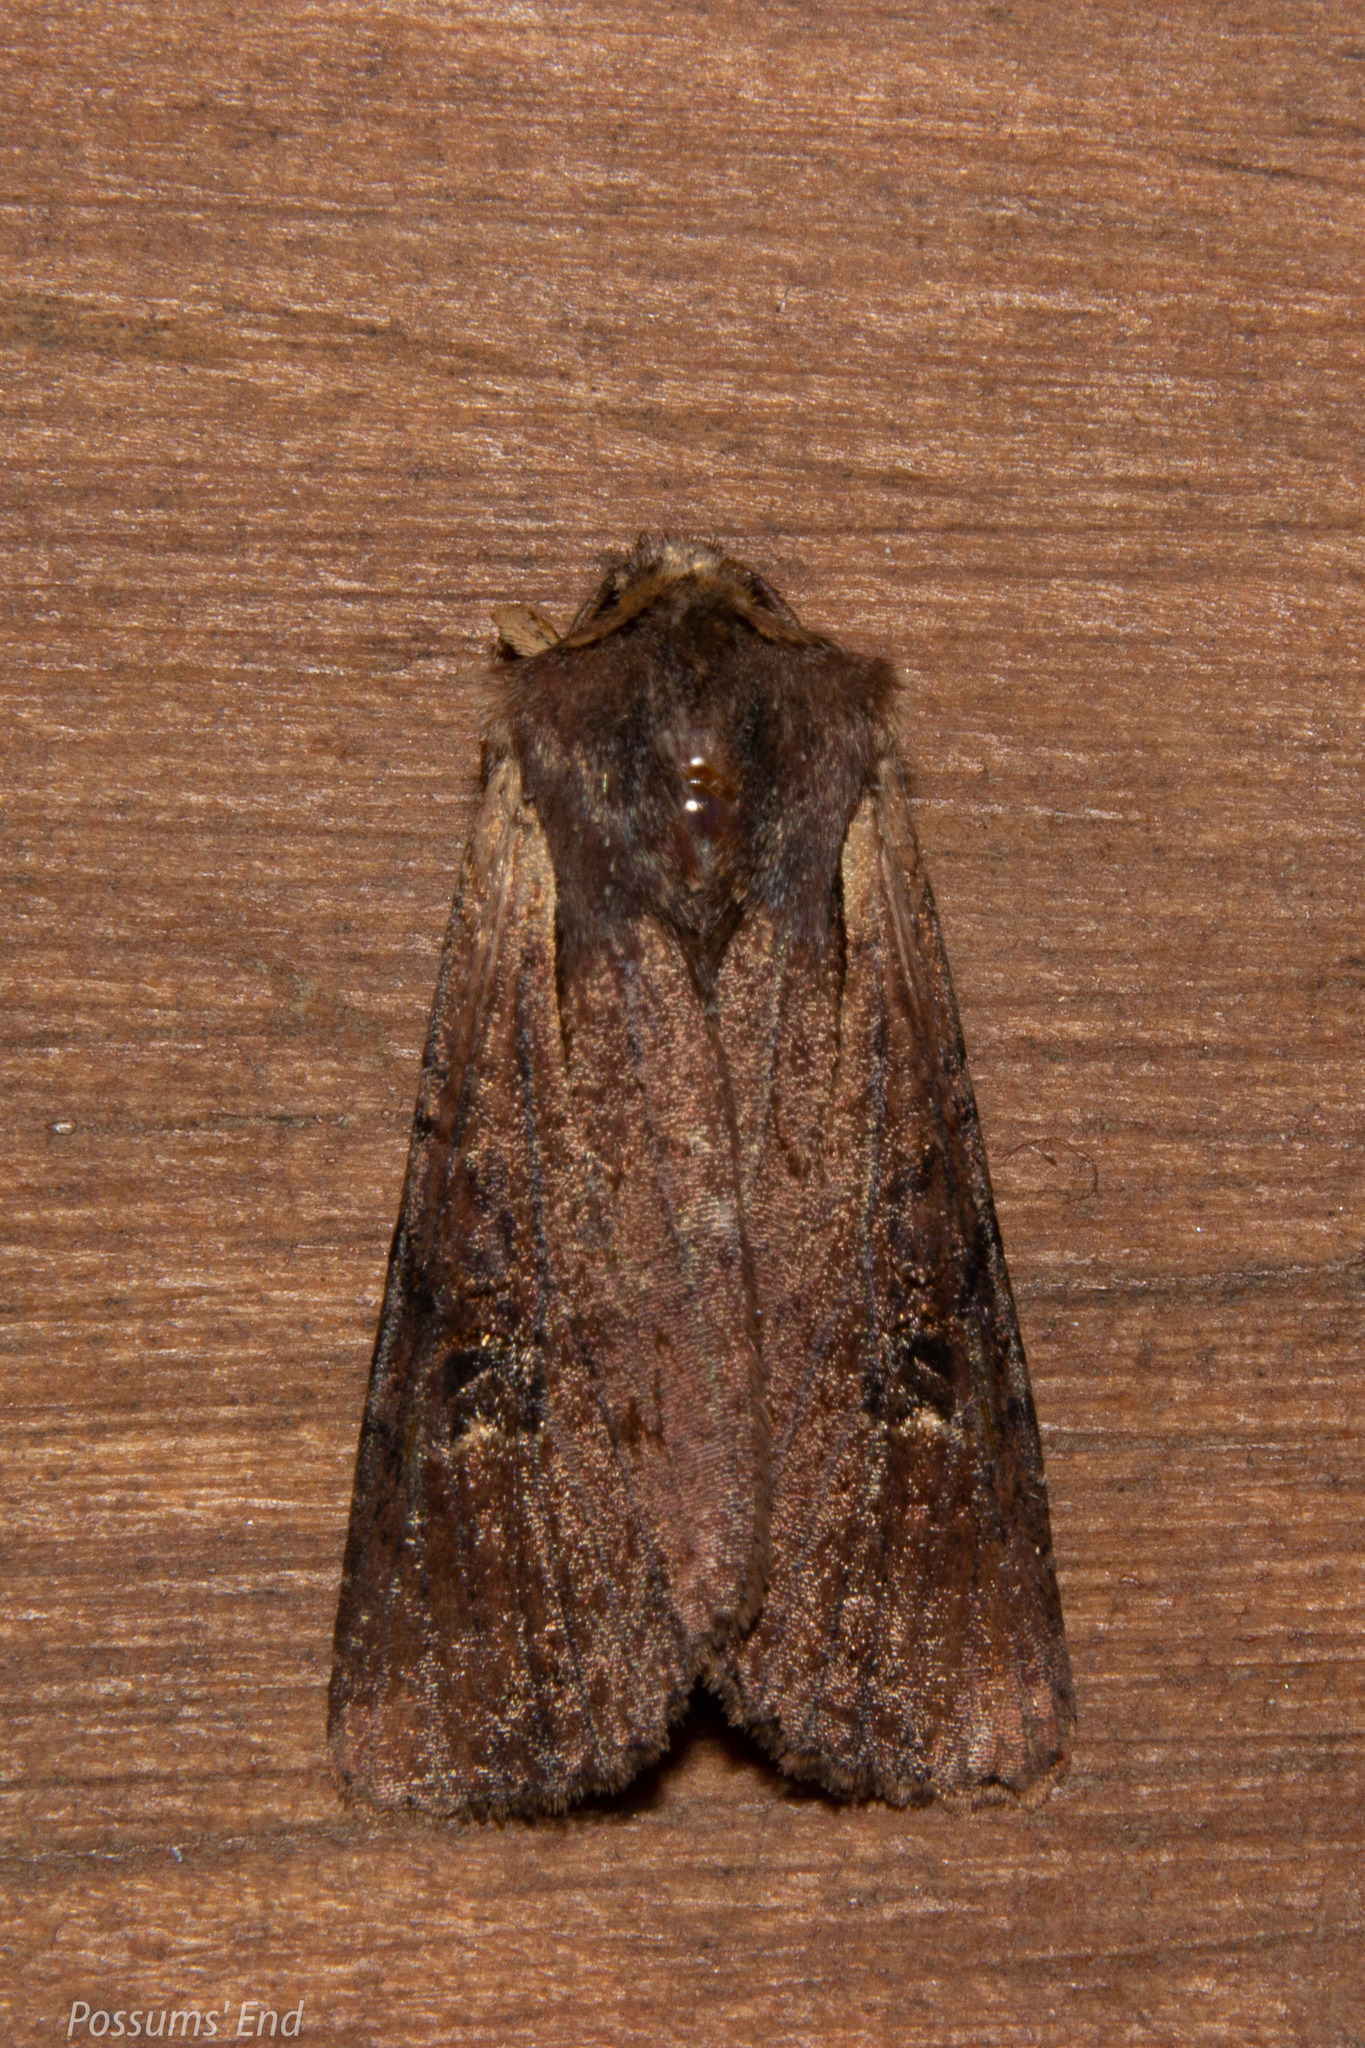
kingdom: Animalia
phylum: Arthropoda
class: Insecta
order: Lepidoptera
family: Noctuidae
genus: Ichneutica
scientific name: Ichneutica omoplaca
